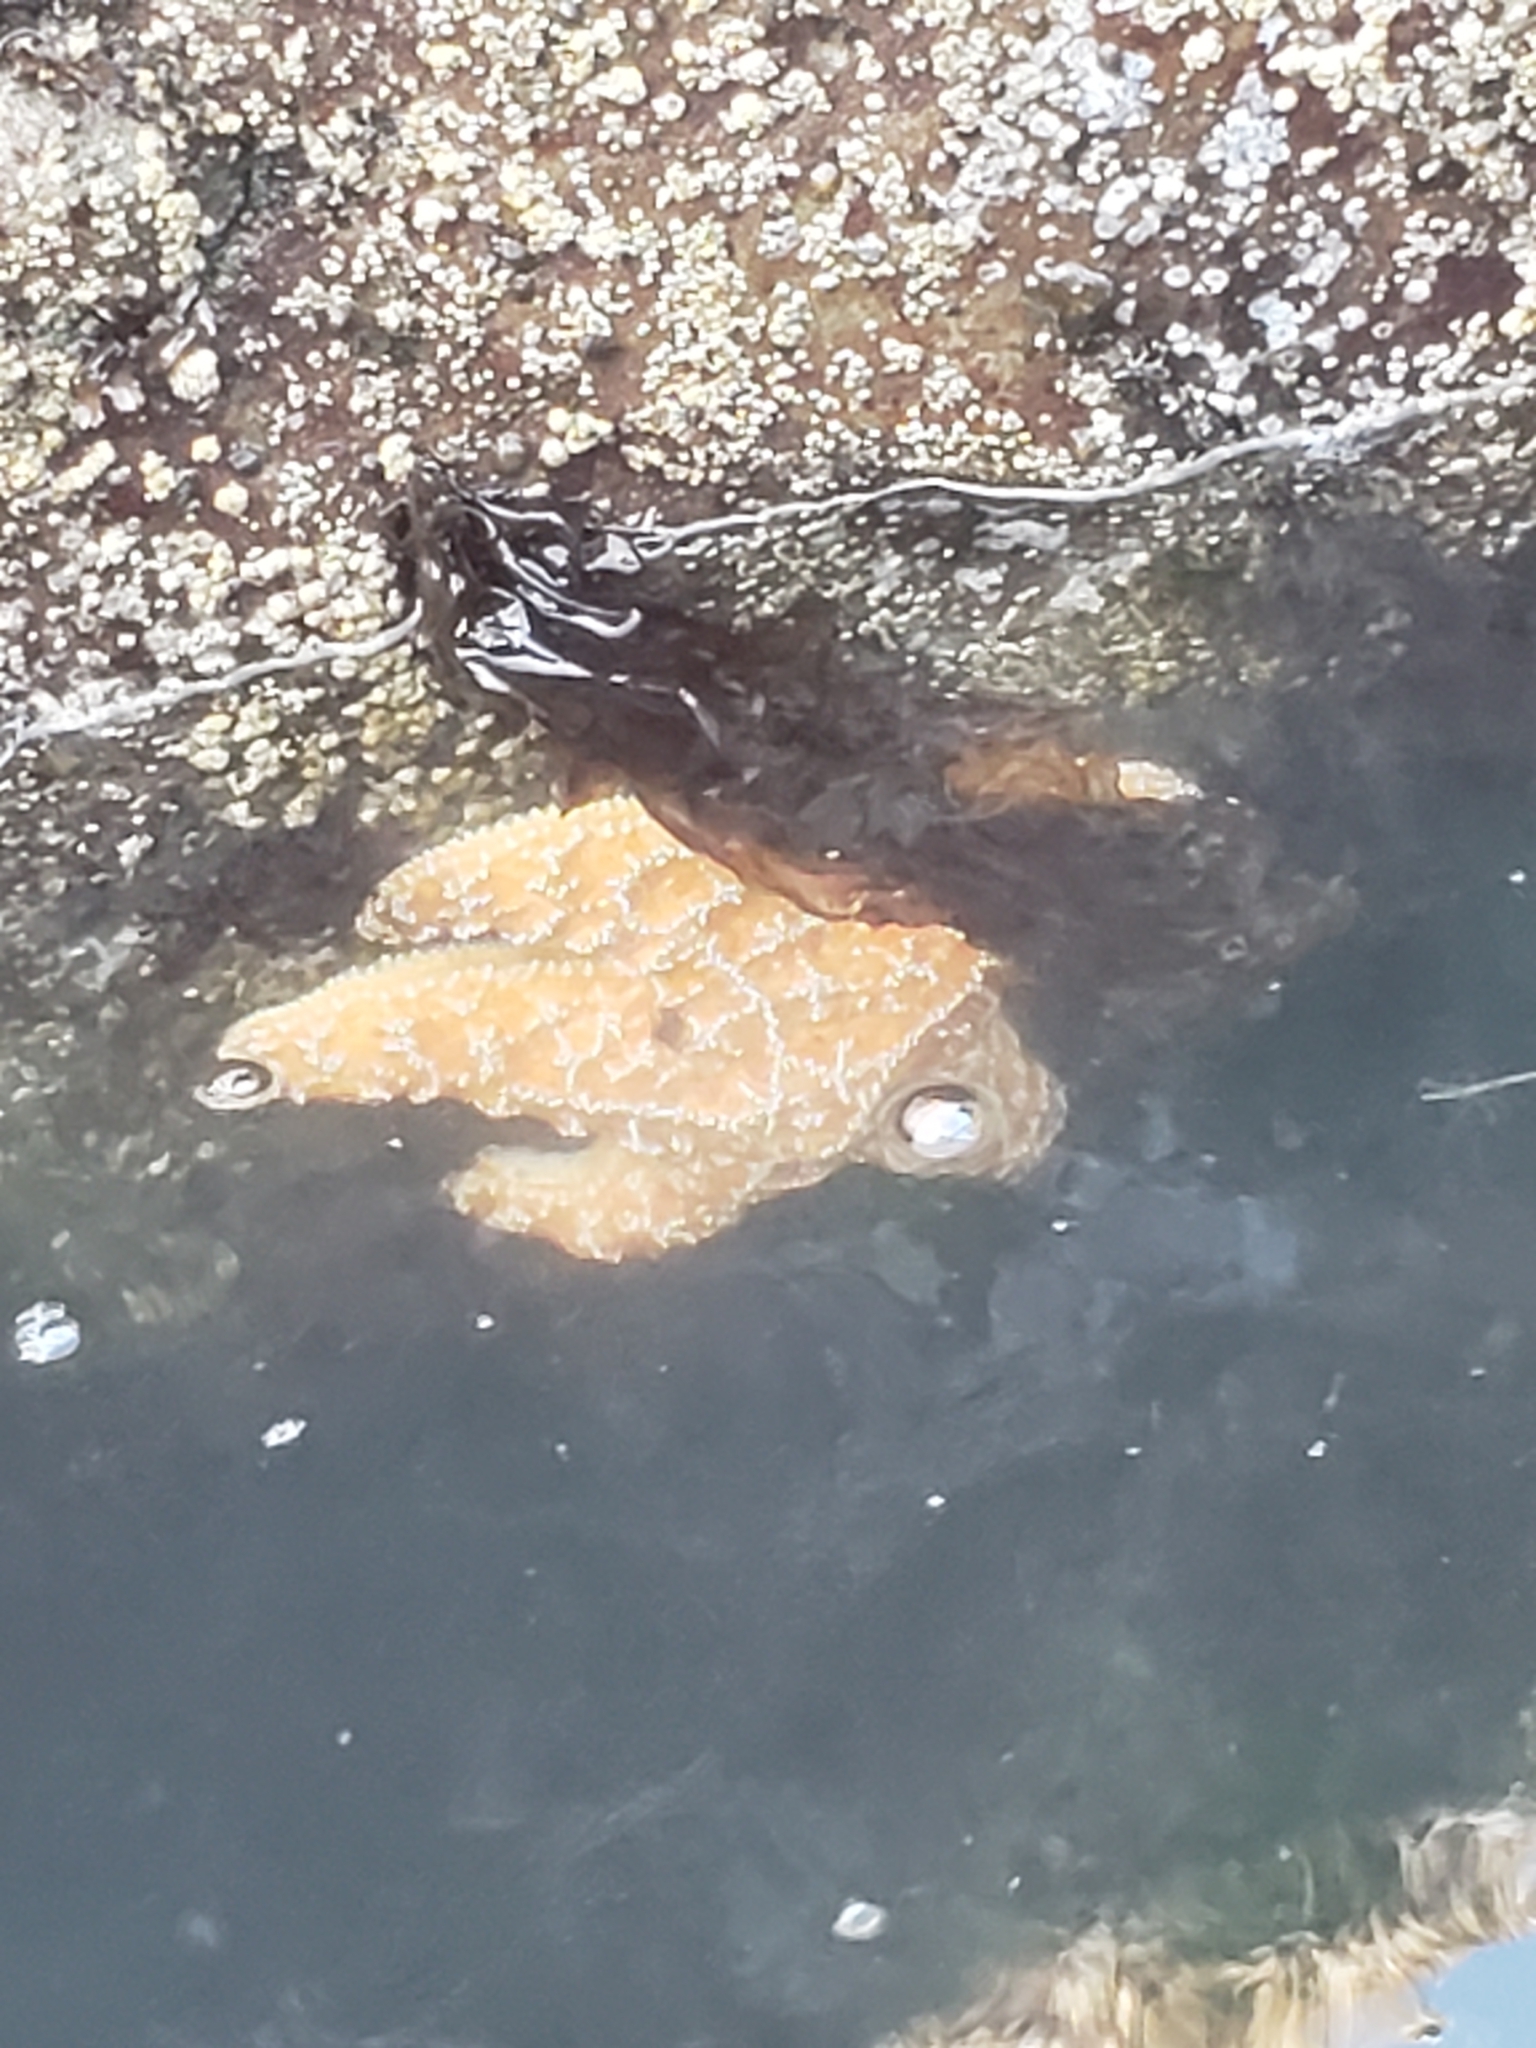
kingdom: Animalia
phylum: Echinodermata
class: Asteroidea
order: Forcipulatida
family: Asteriidae
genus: Pisaster
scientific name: Pisaster ochraceus
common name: Ochre stars
